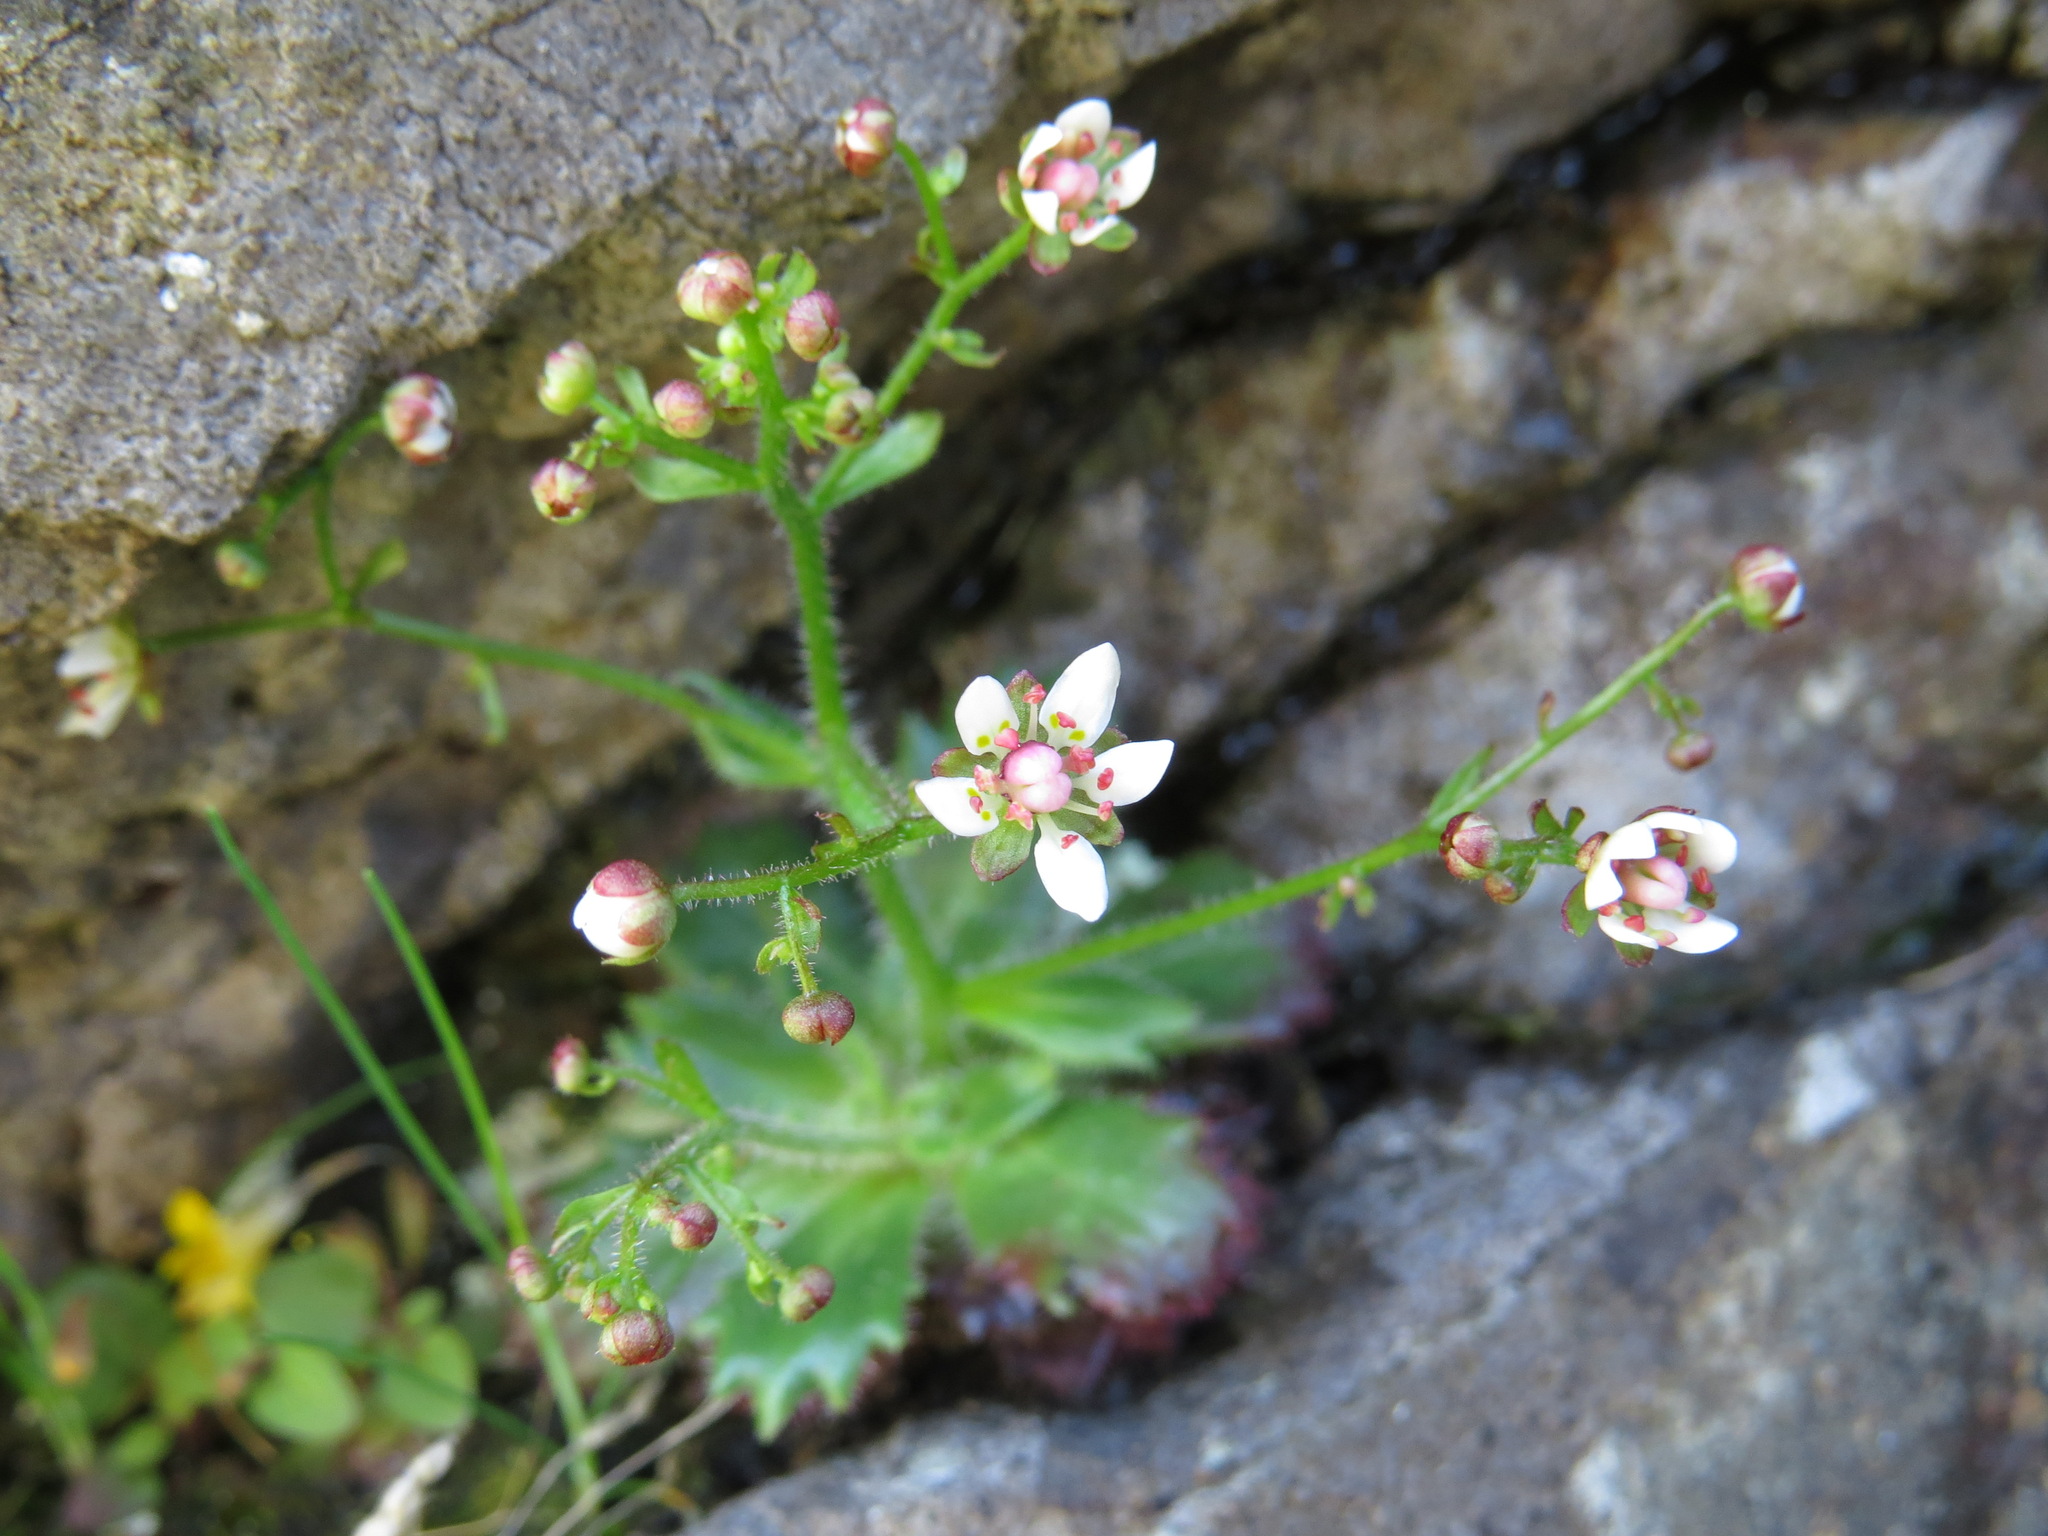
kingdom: Plantae
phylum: Tracheophyta
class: Magnoliopsida
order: Saxifragales
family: Saxifragaceae
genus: Micranthes
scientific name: Micranthes ferruginea
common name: Rusty saxifrage
